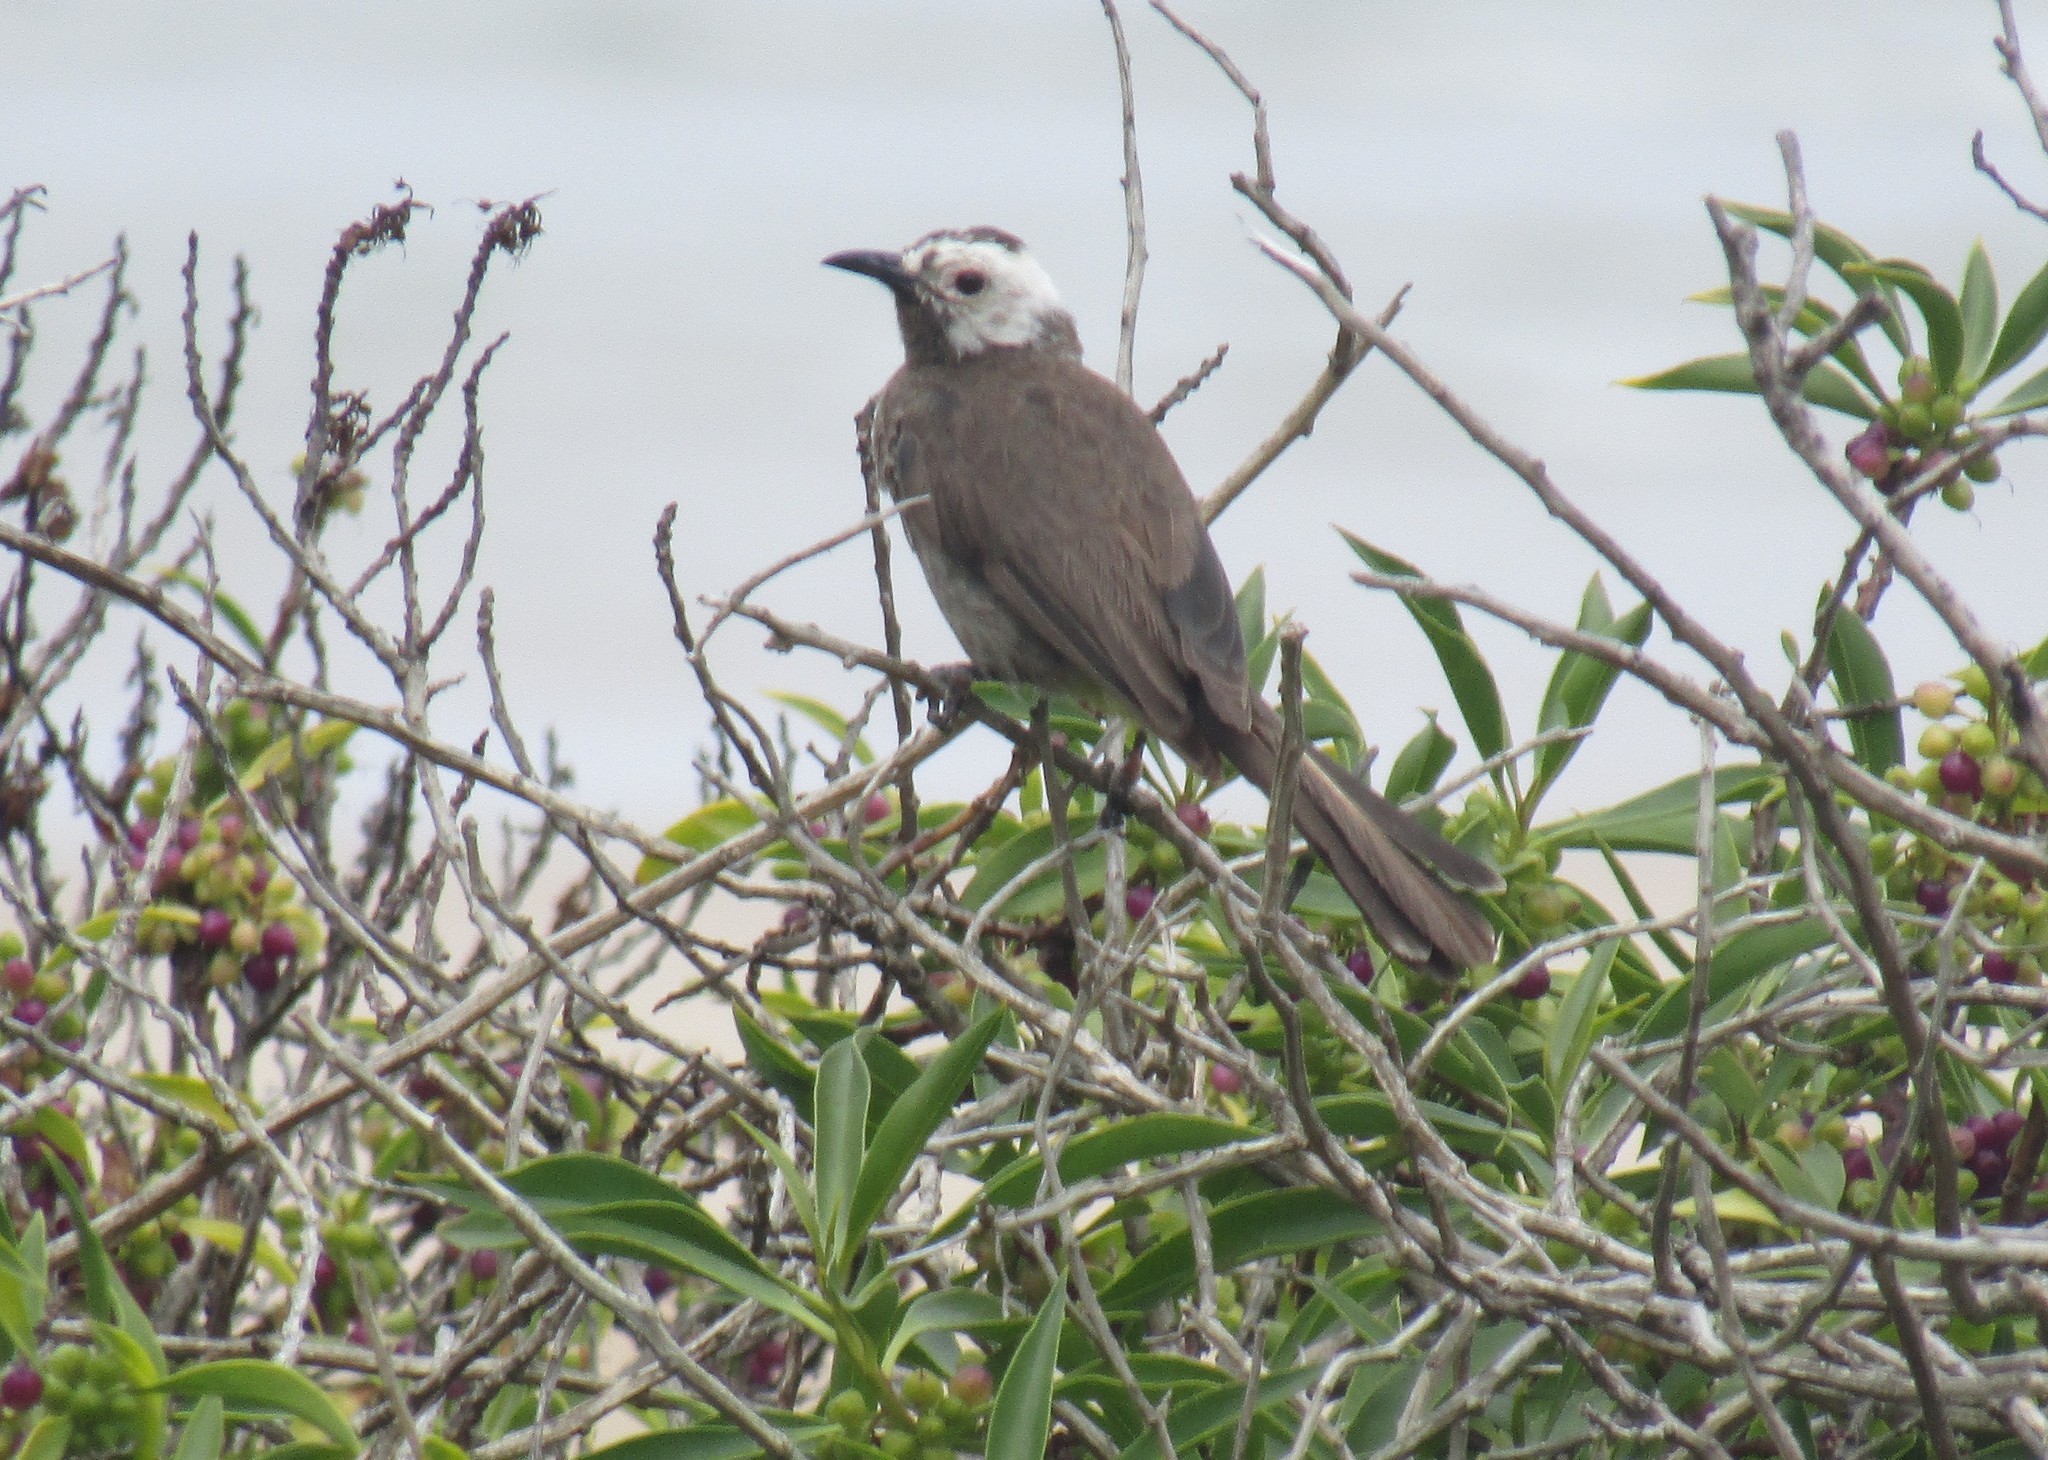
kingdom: Animalia
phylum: Chordata
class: Aves
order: Passeriformes
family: Pycnonotidae
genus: Pycnonotus
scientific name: Pycnonotus capensis
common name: Cape bulbul
